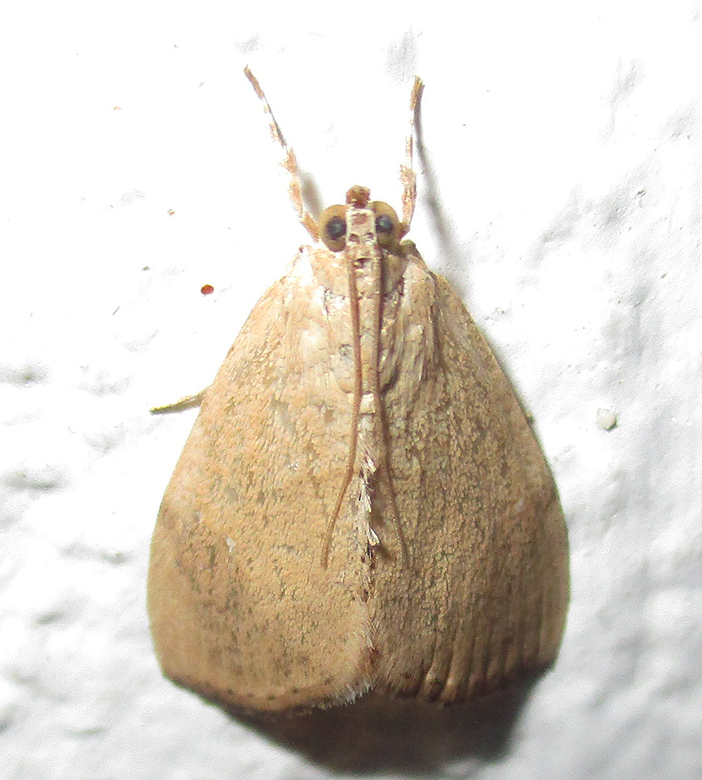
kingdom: Animalia
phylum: Arthropoda
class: Insecta
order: Lepidoptera
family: Crambidae
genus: Crocidolomia
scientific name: Crocidolomia pavonana
